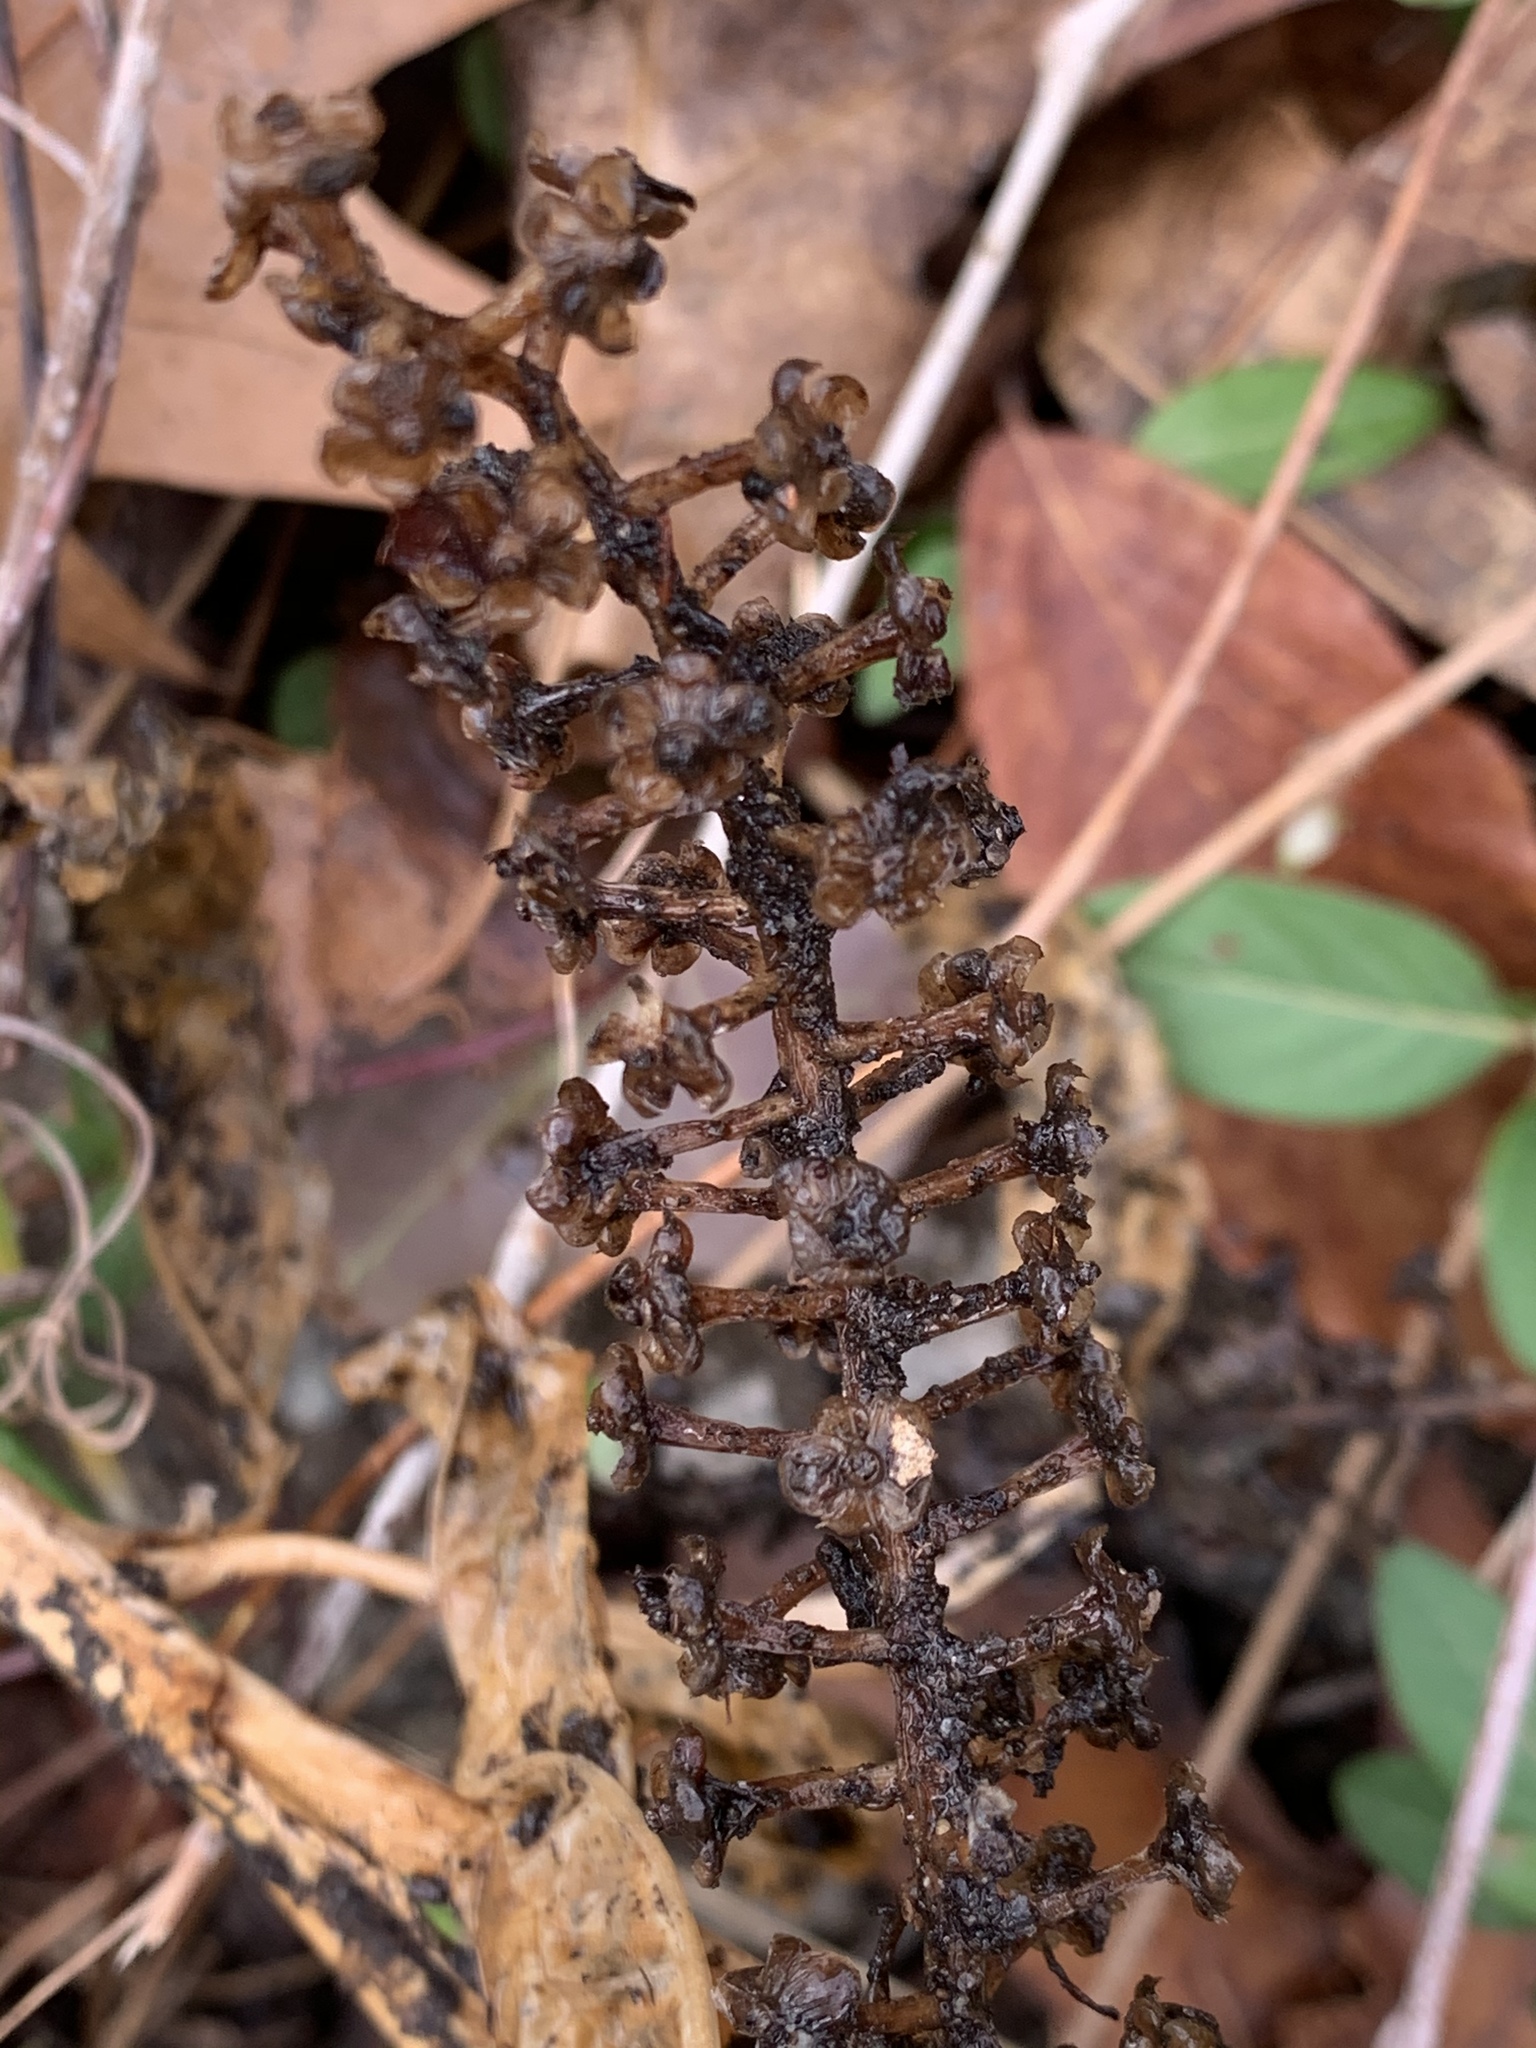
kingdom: Plantae
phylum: Tracheophyta
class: Magnoliopsida
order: Caryophyllales
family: Phytolaccaceae
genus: Phytolacca
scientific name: Phytolacca americana
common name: American pokeweed
